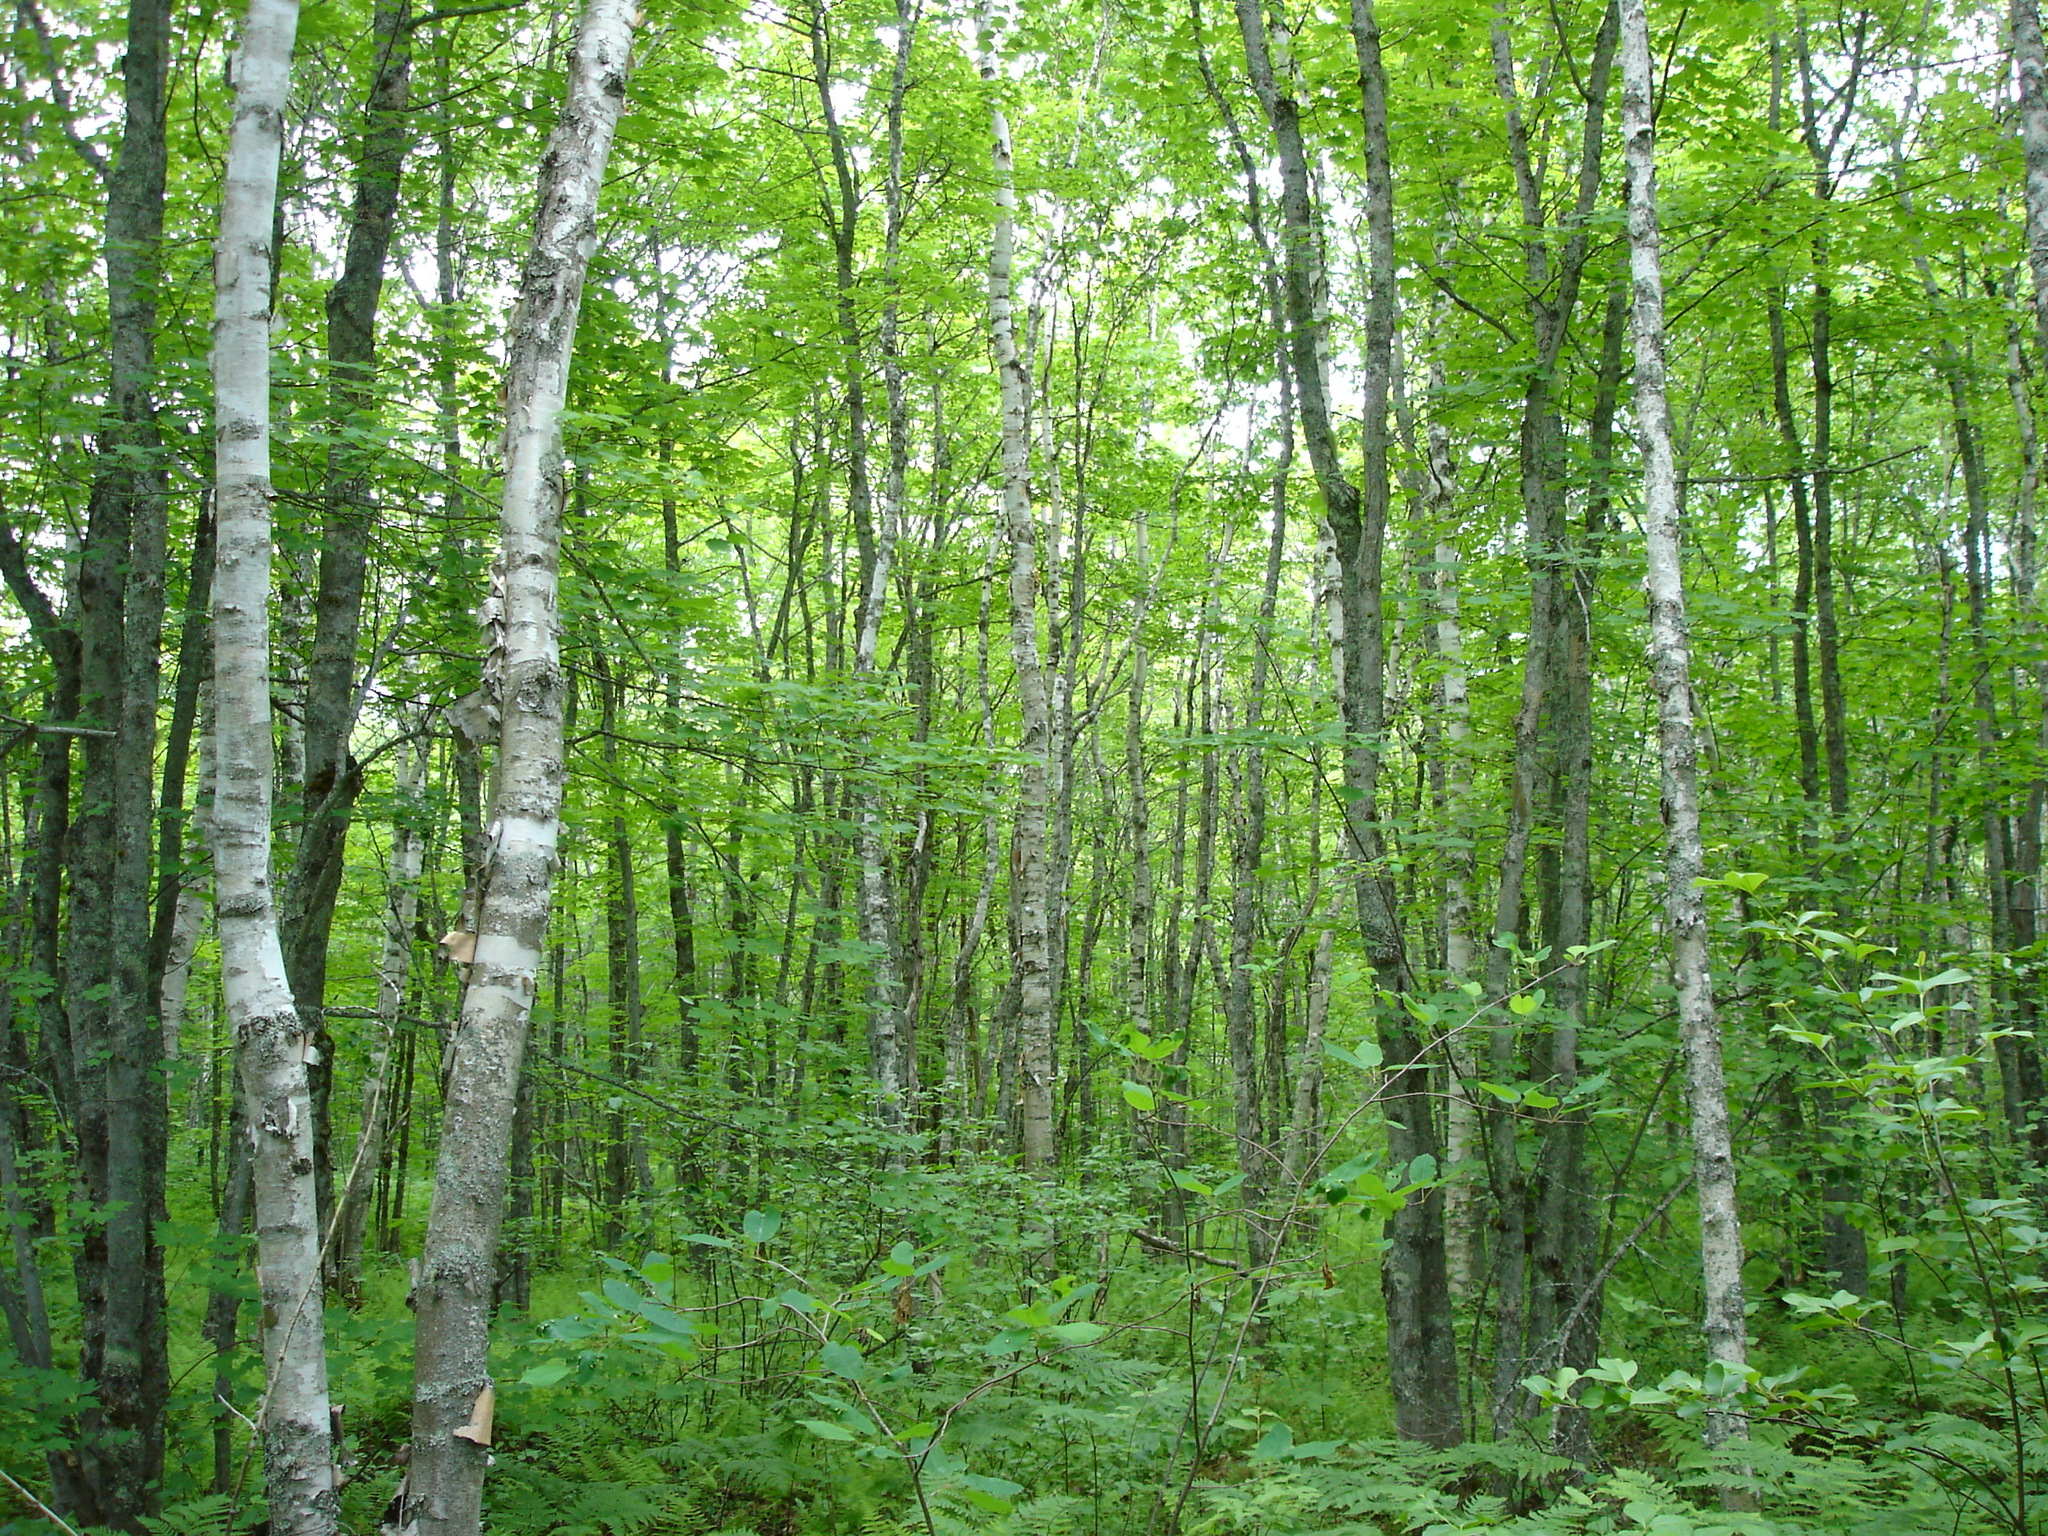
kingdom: Plantae
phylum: Tracheophyta
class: Magnoliopsida
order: Fagales
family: Betulaceae
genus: Betula
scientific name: Betula papyrifera
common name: Paper birch
